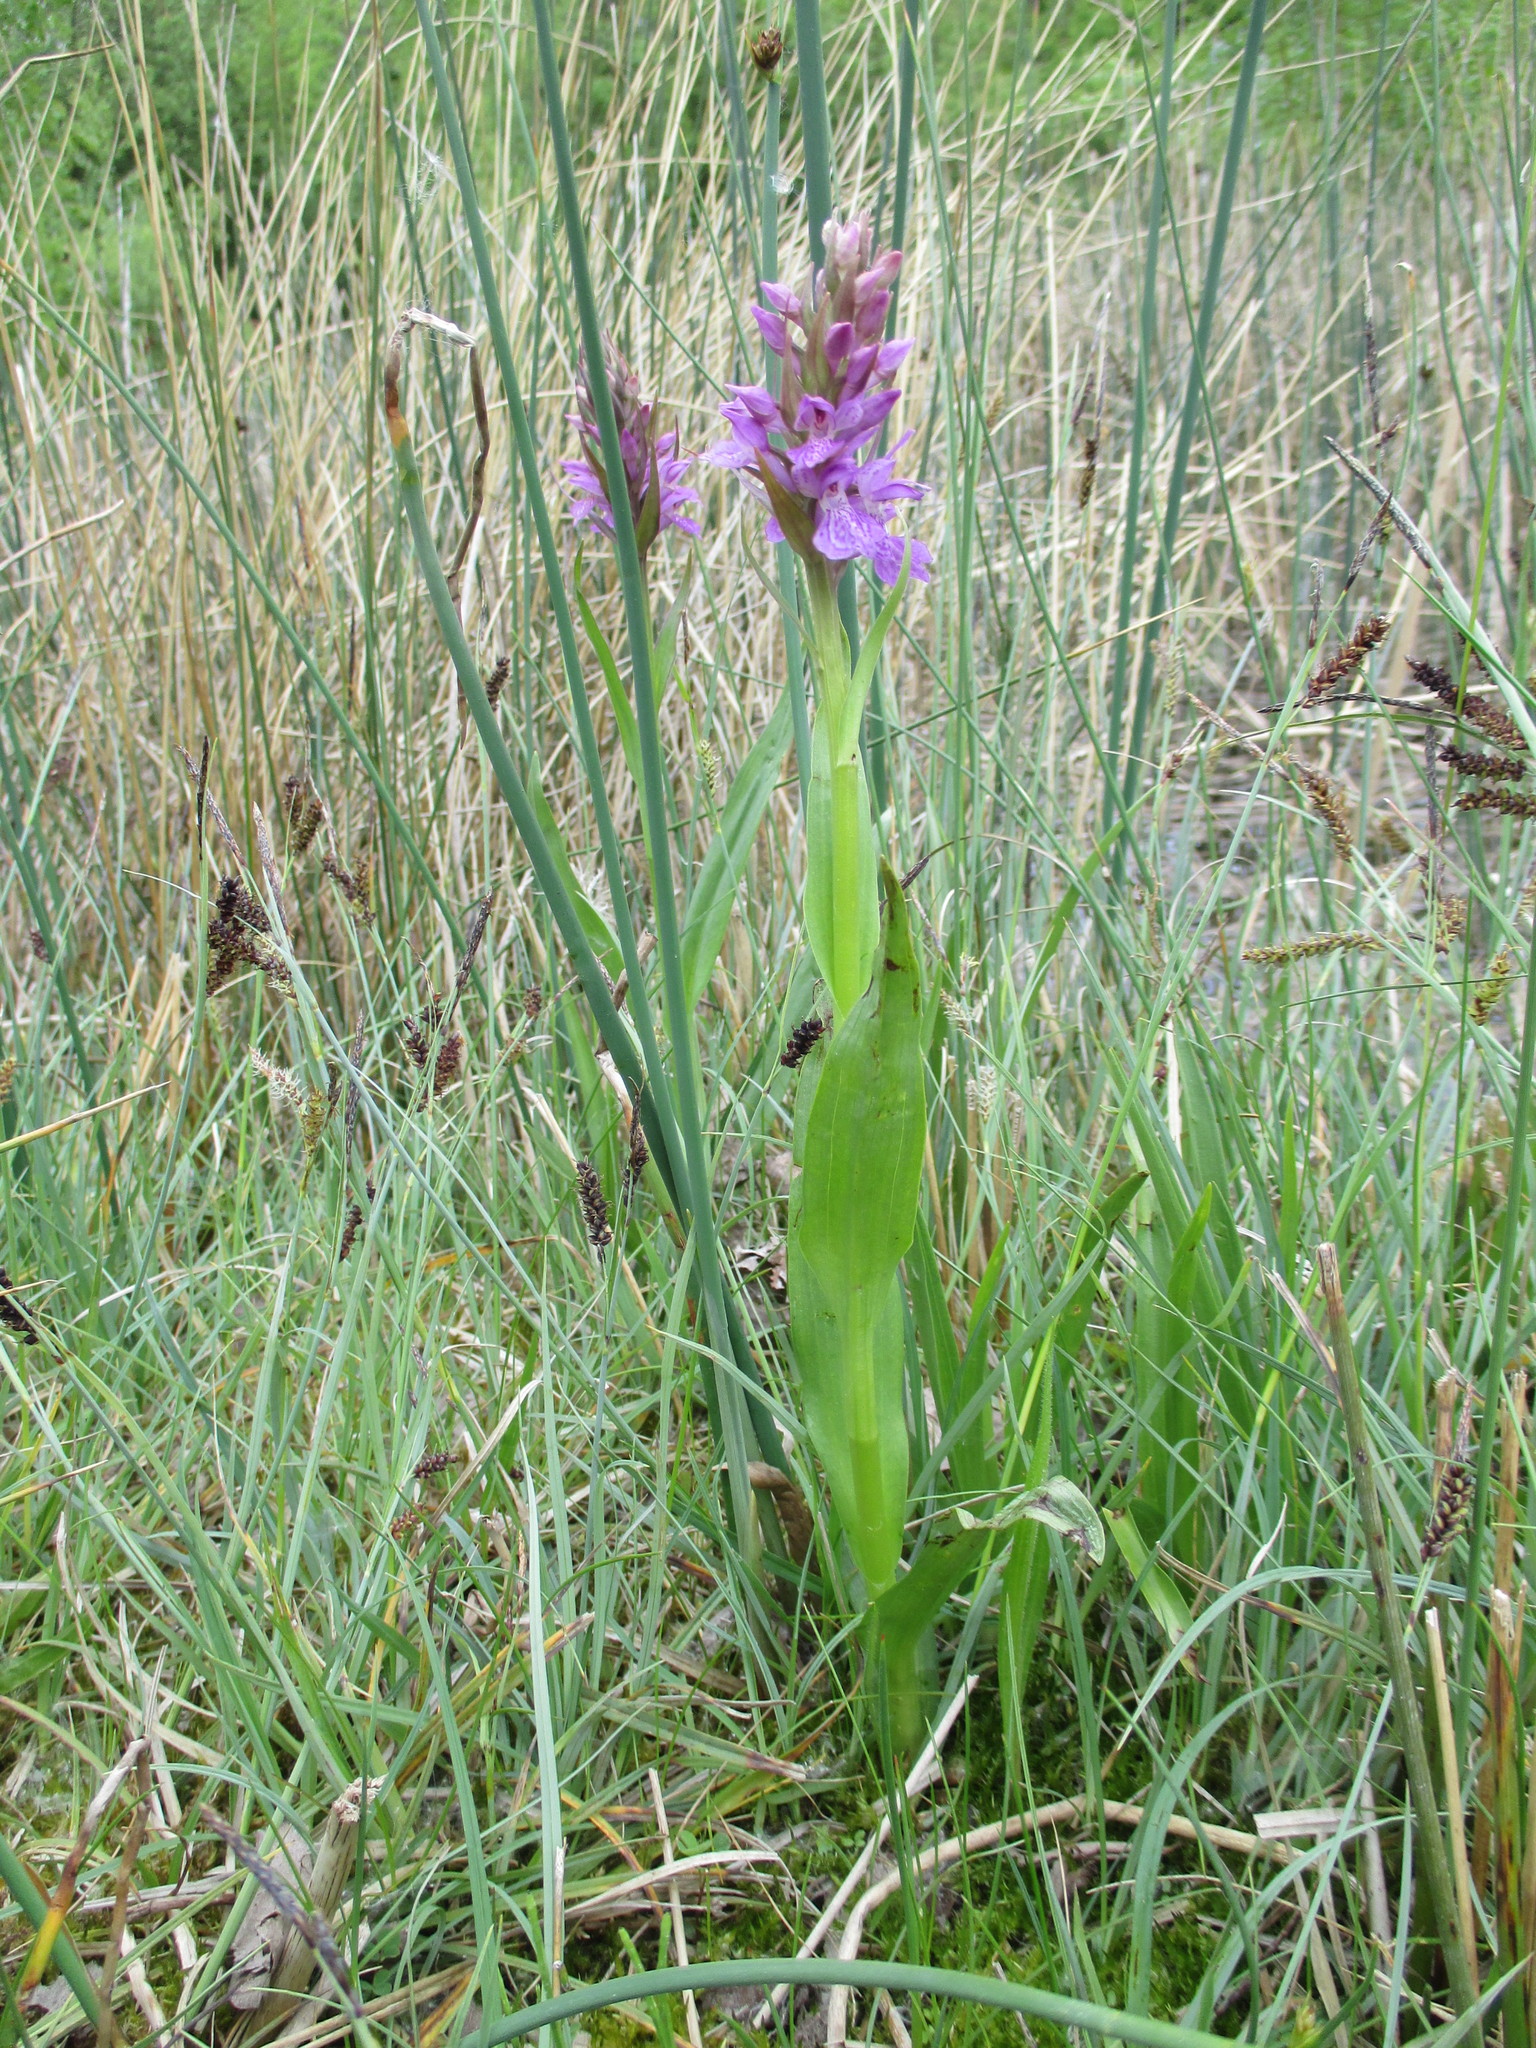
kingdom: Plantae
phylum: Tracheophyta
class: Liliopsida
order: Asparagales
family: Orchidaceae
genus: Dactylorhiza
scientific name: Dactylorhiza majalis
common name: Marsh orchid
